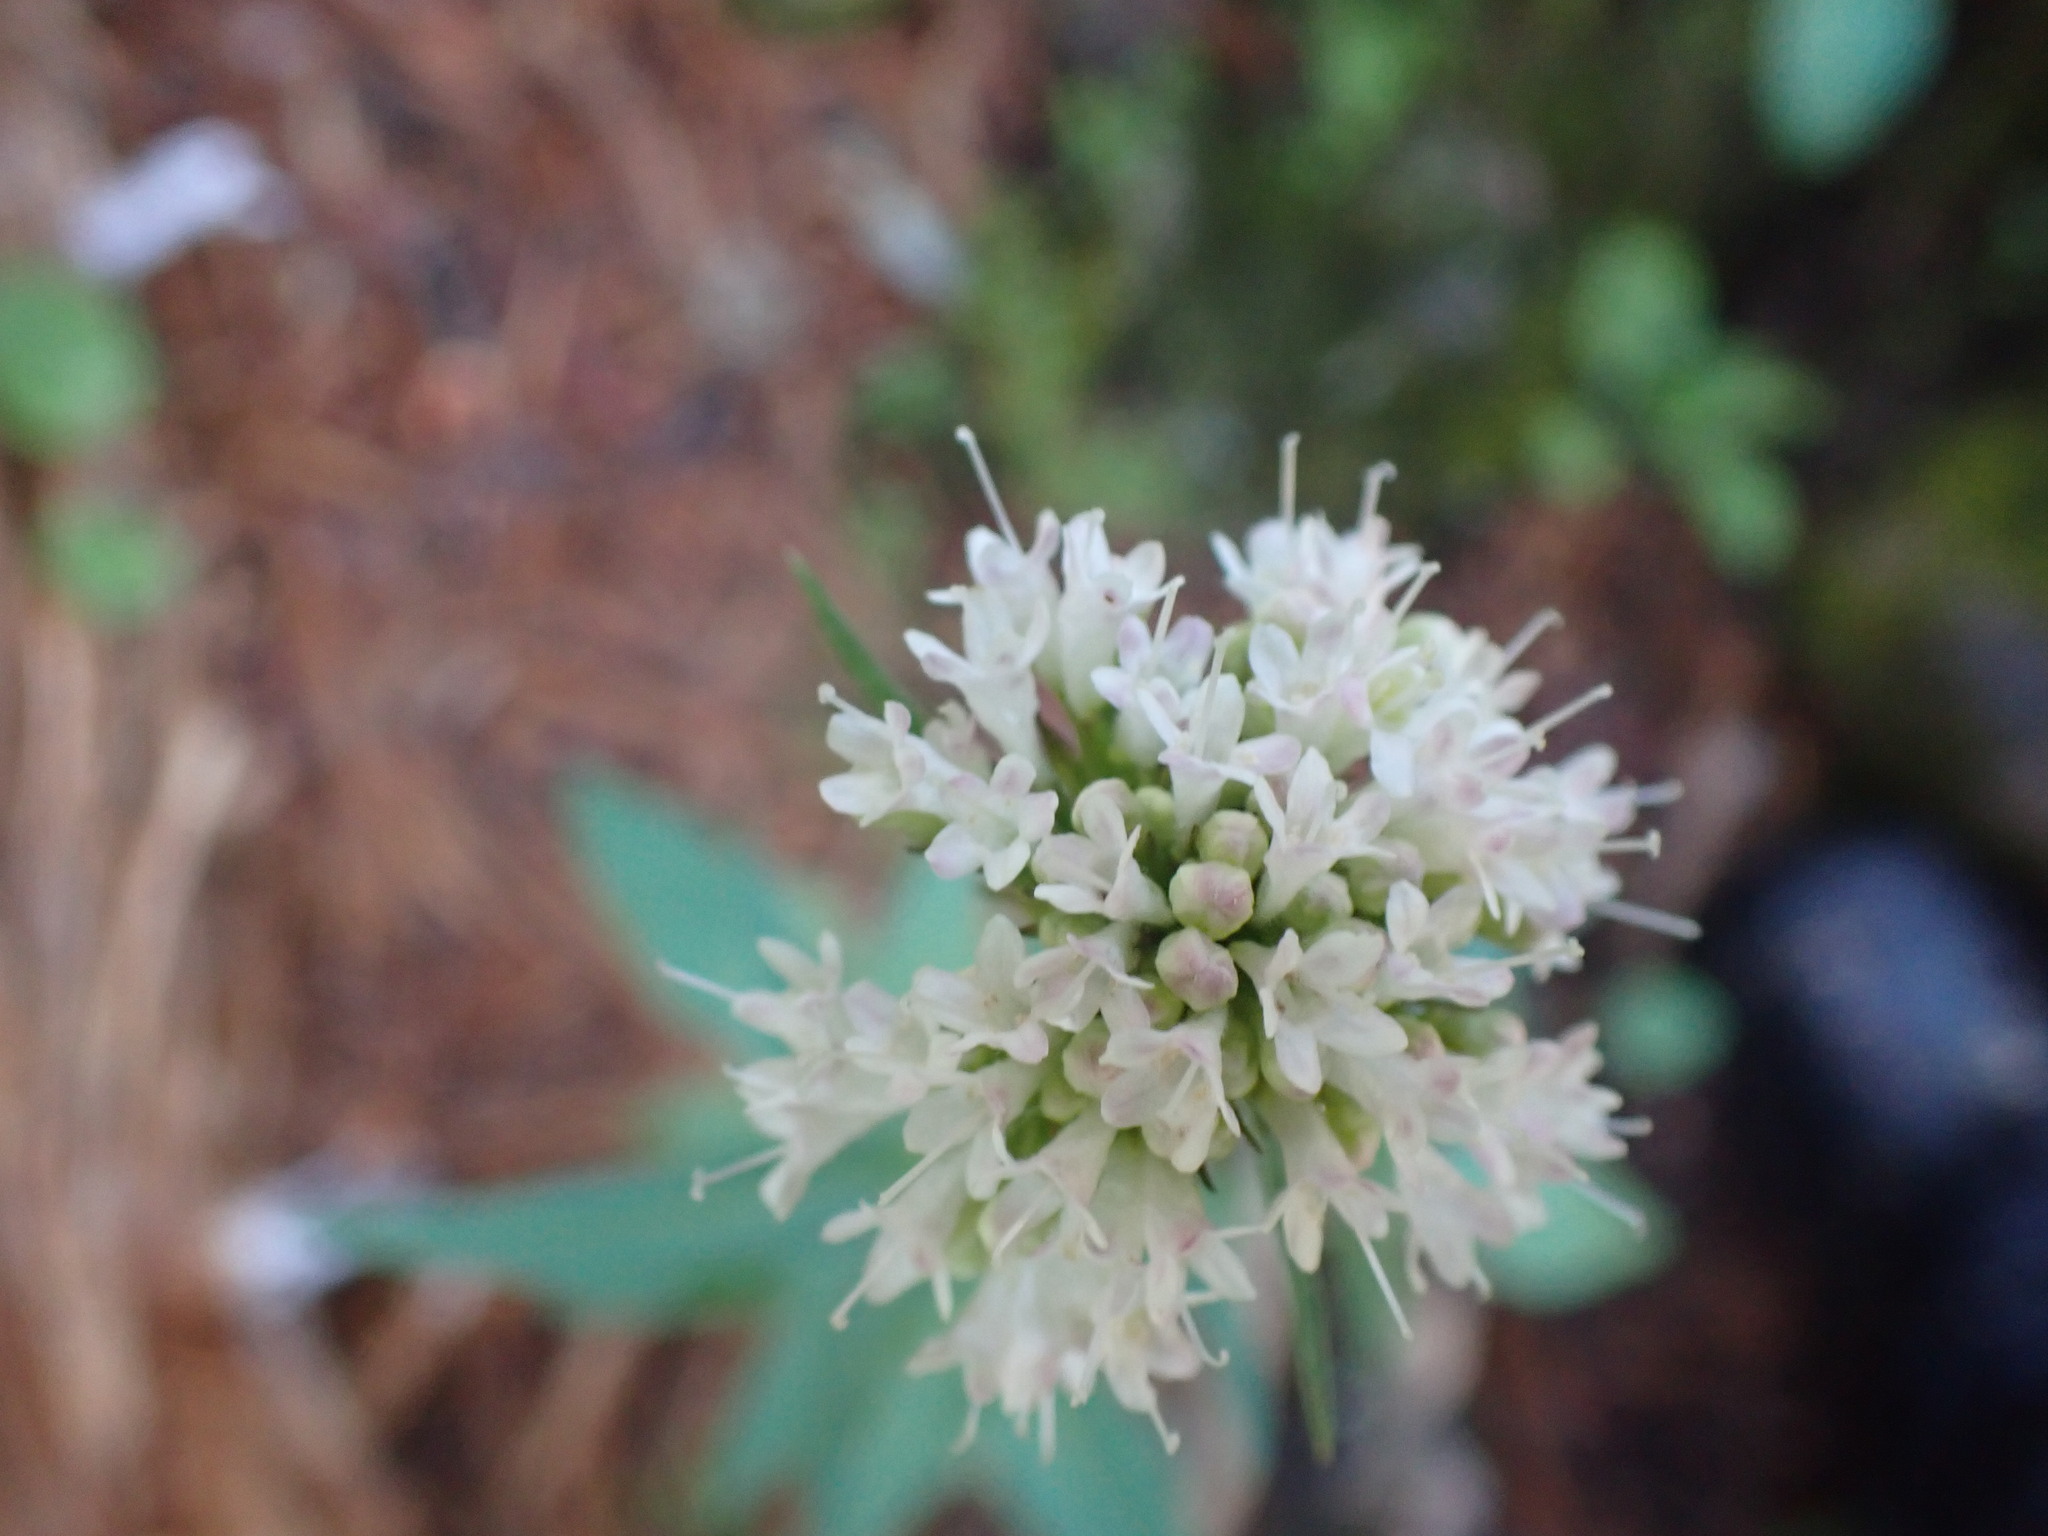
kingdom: Plantae
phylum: Tracheophyta
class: Magnoliopsida
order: Dipsacales
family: Caprifoliaceae
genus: Valeriana
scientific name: Valeriana sitchensis
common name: Pacific valerian
